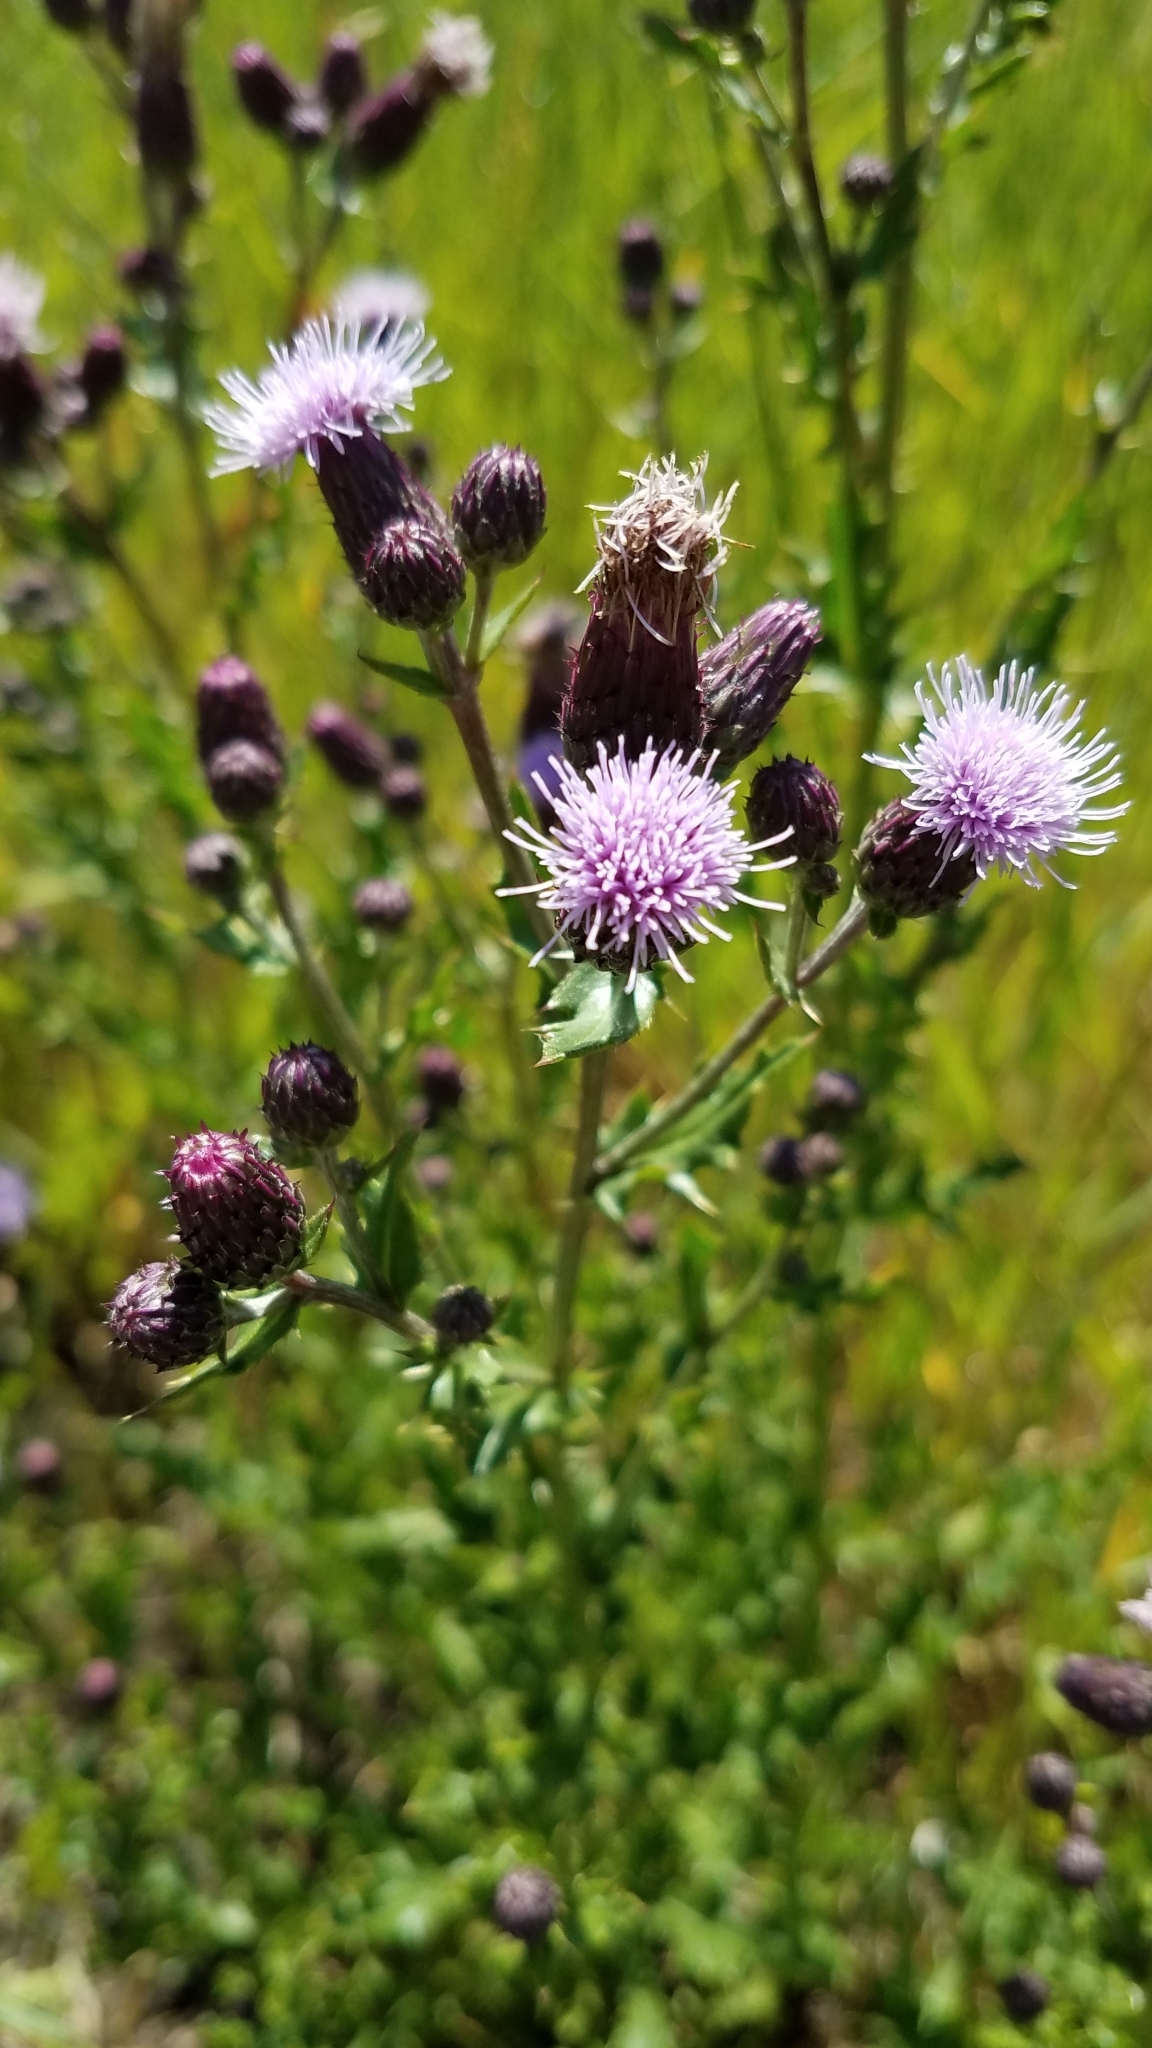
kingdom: Plantae
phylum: Tracheophyta
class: Magnoliopsida
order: Asterales
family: Asteraceae
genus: Cirsium
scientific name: Cirsium arvense
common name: Creeping thistle
